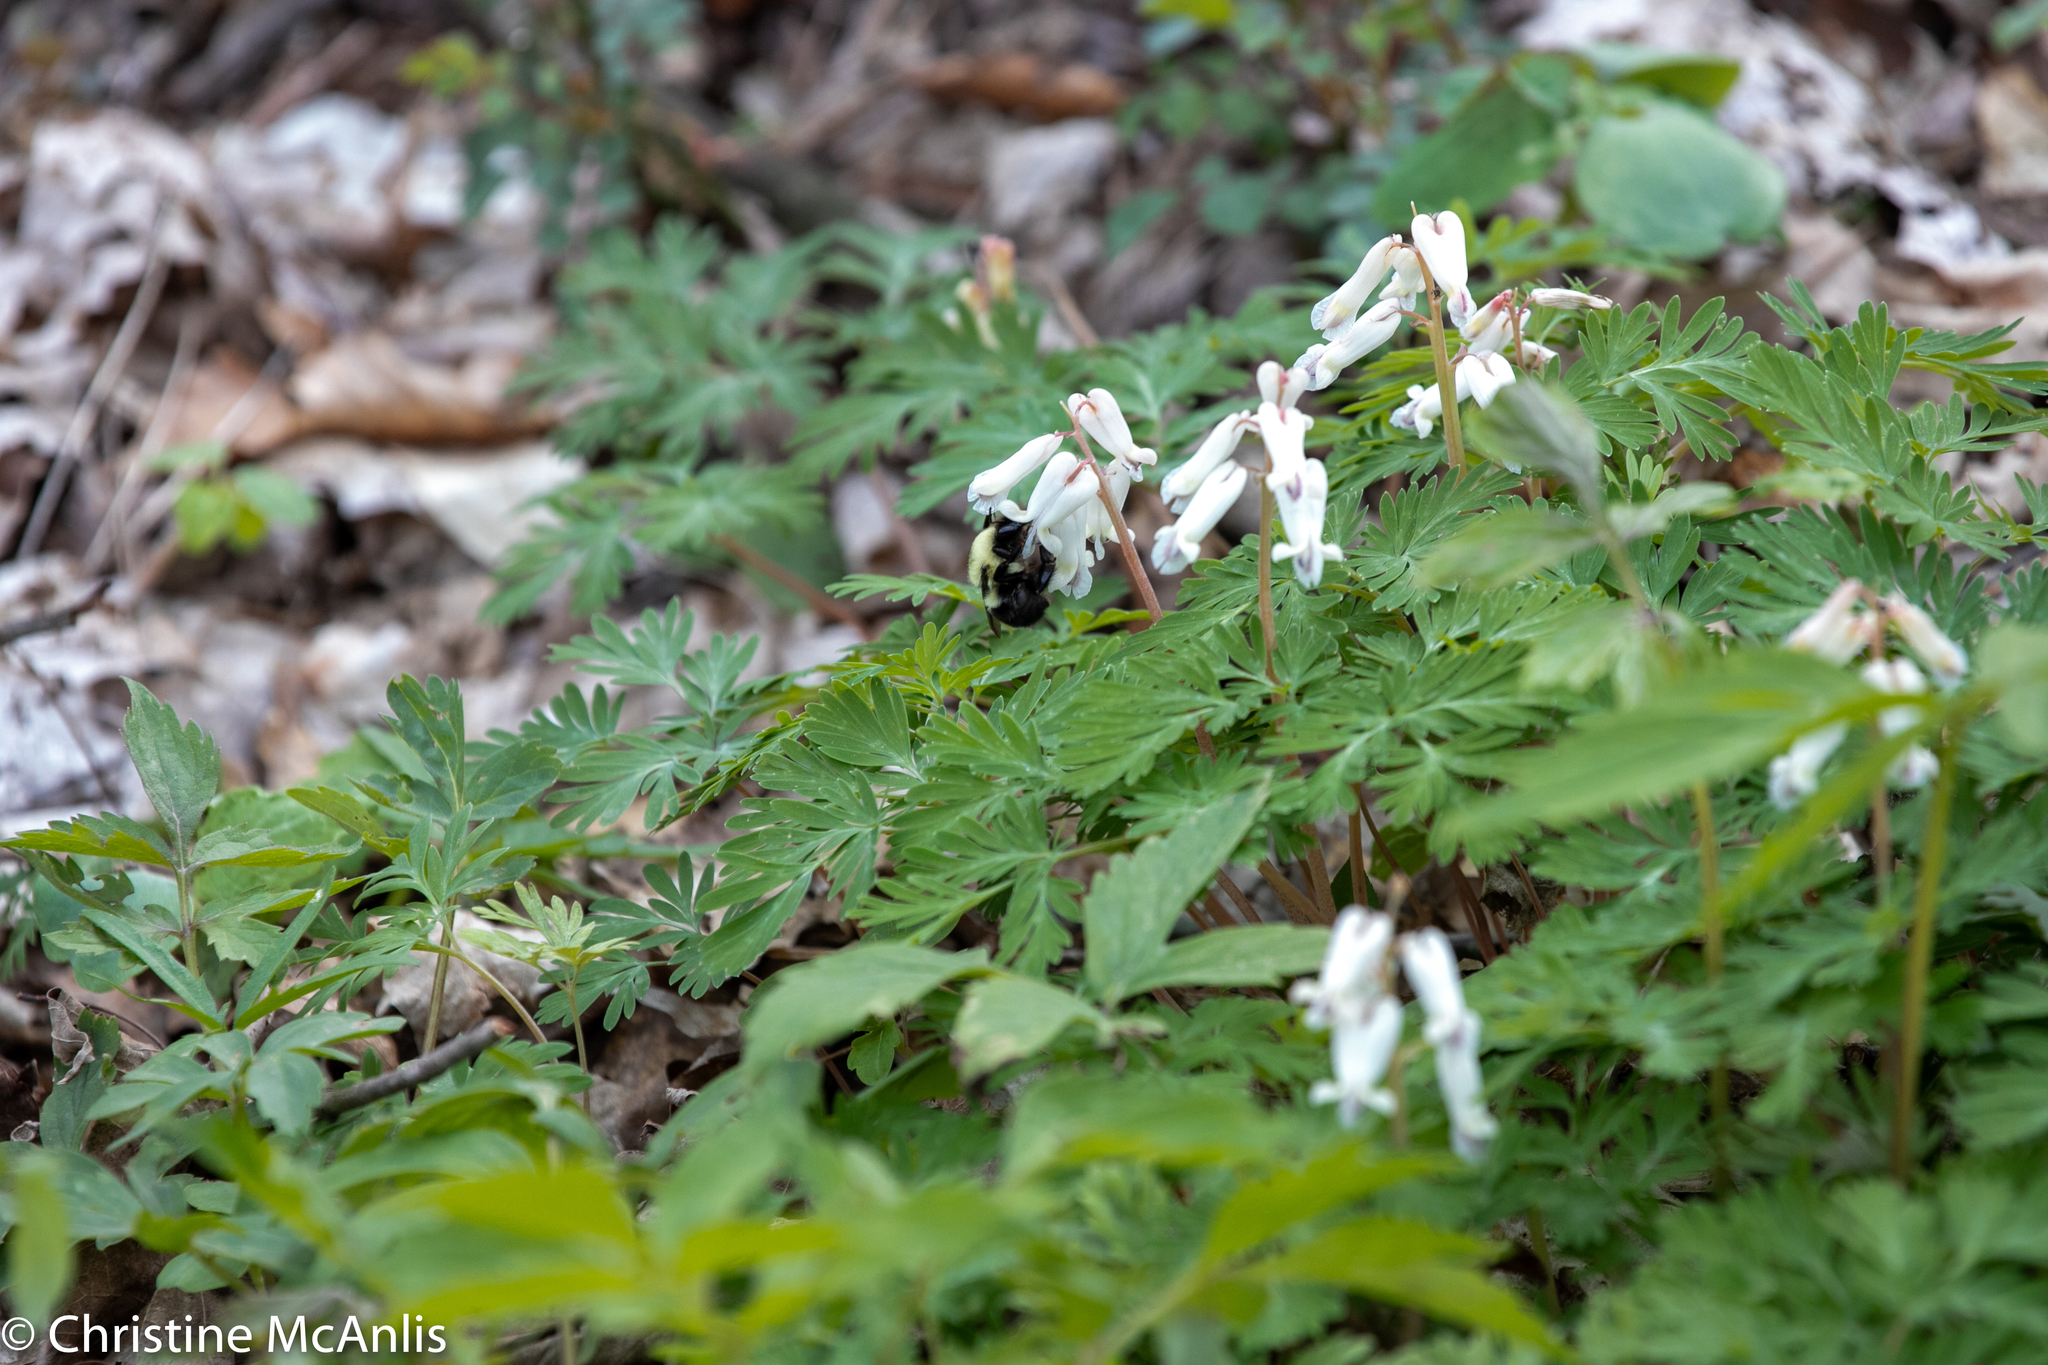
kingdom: Plantae
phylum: Tracheophyta
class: Magnoliopsida
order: Ranunculales
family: Papaveraceae
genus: Dicentra
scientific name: Dicentra canadensis
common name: Squirrel-corn
